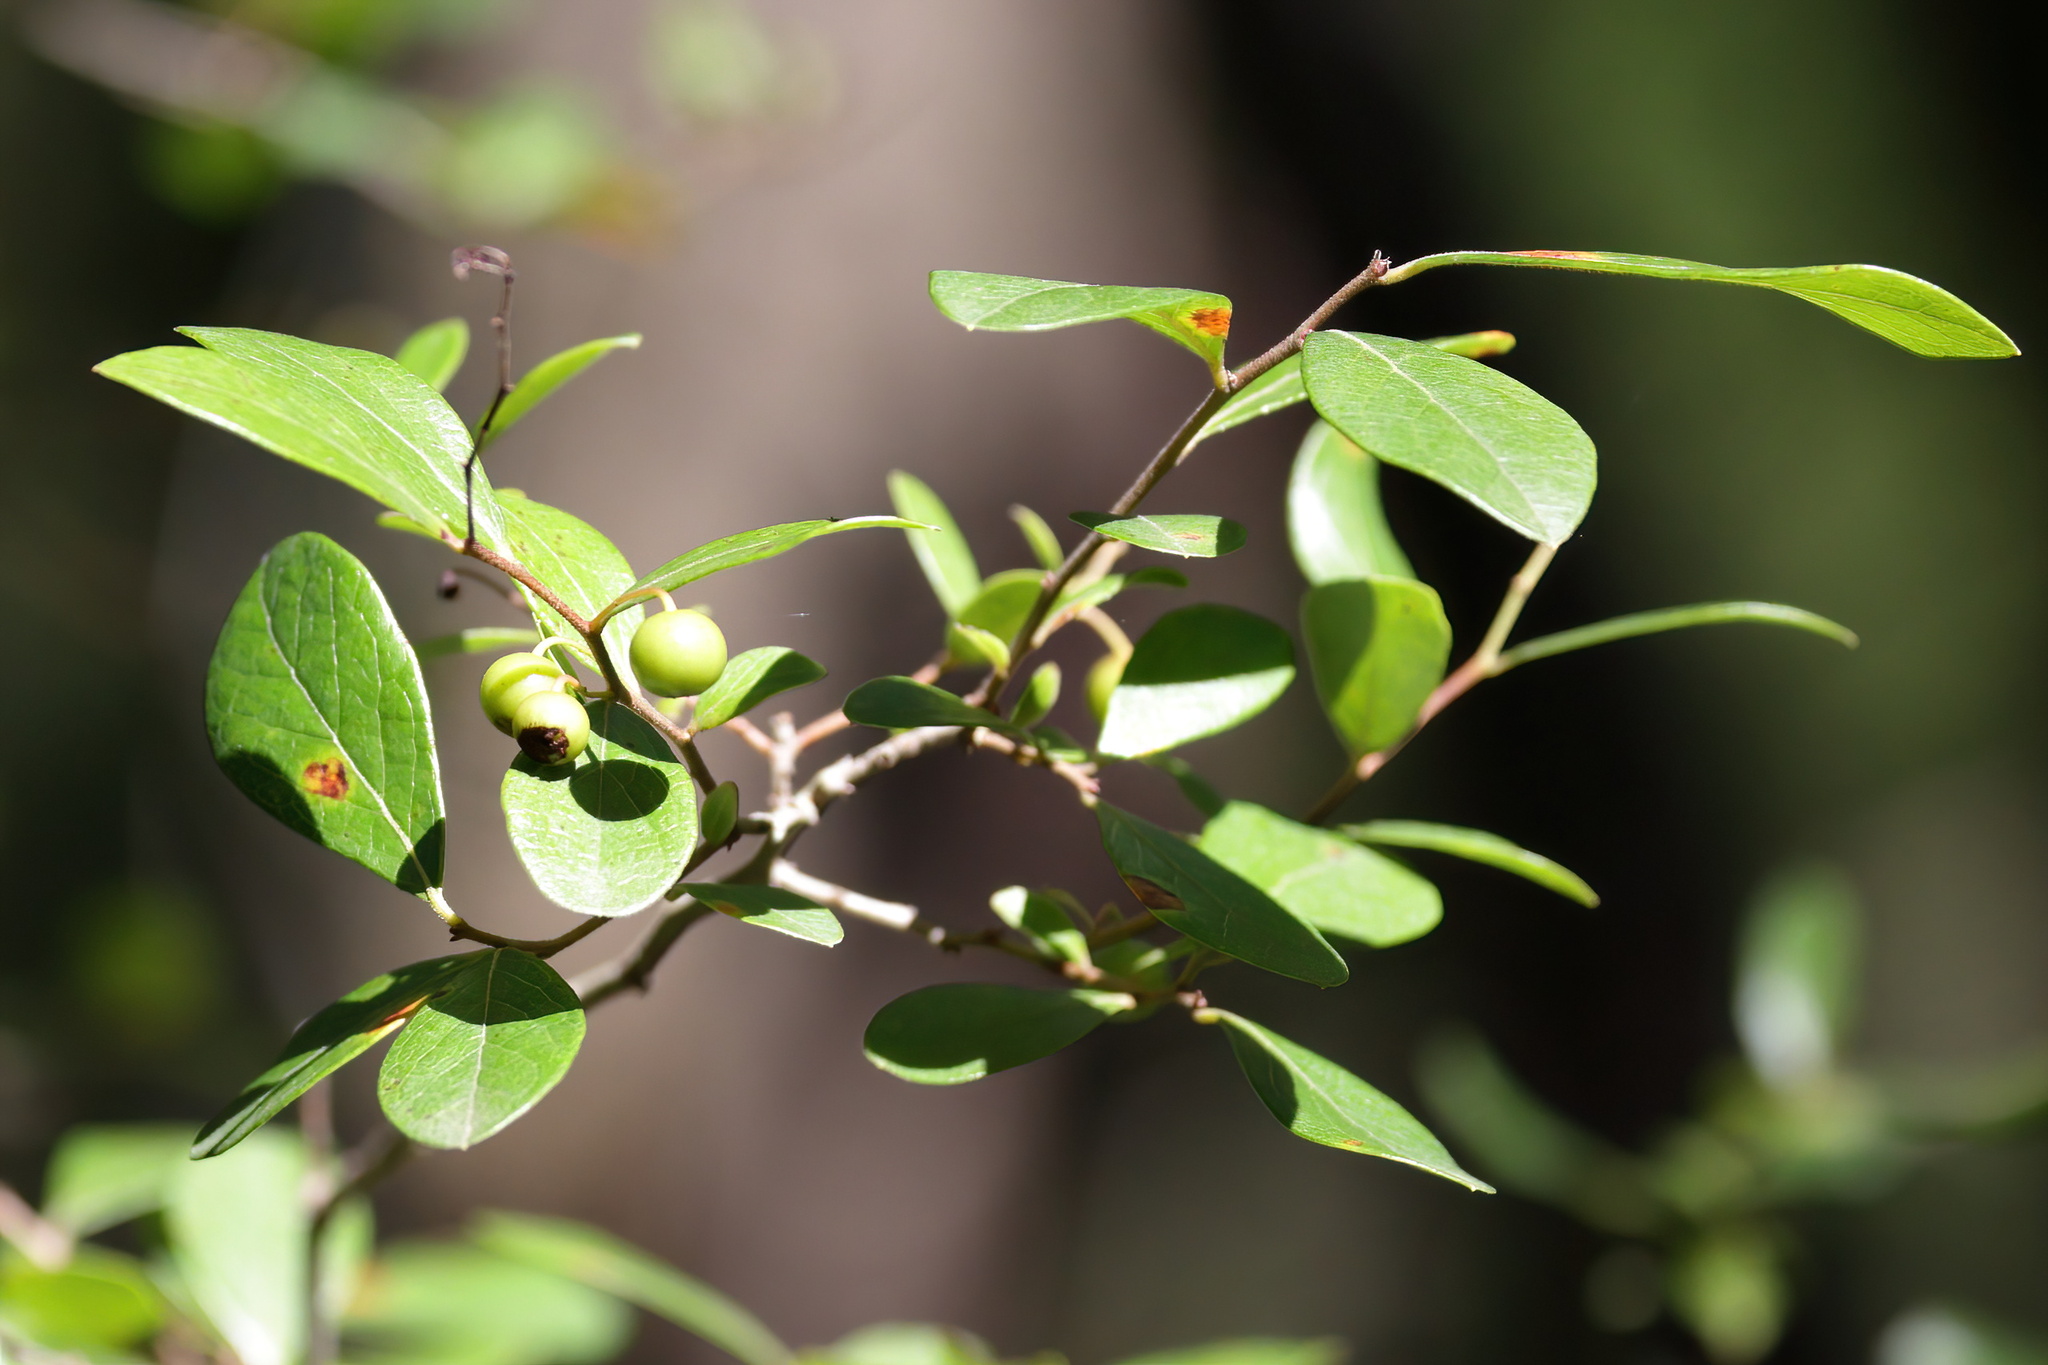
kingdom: Plantae
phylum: Tracheophyta
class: Magnoliopsida
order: Ericales
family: Ericaceae
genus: Vaccinium
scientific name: Vaccinium arboreum
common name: Farkleberry
